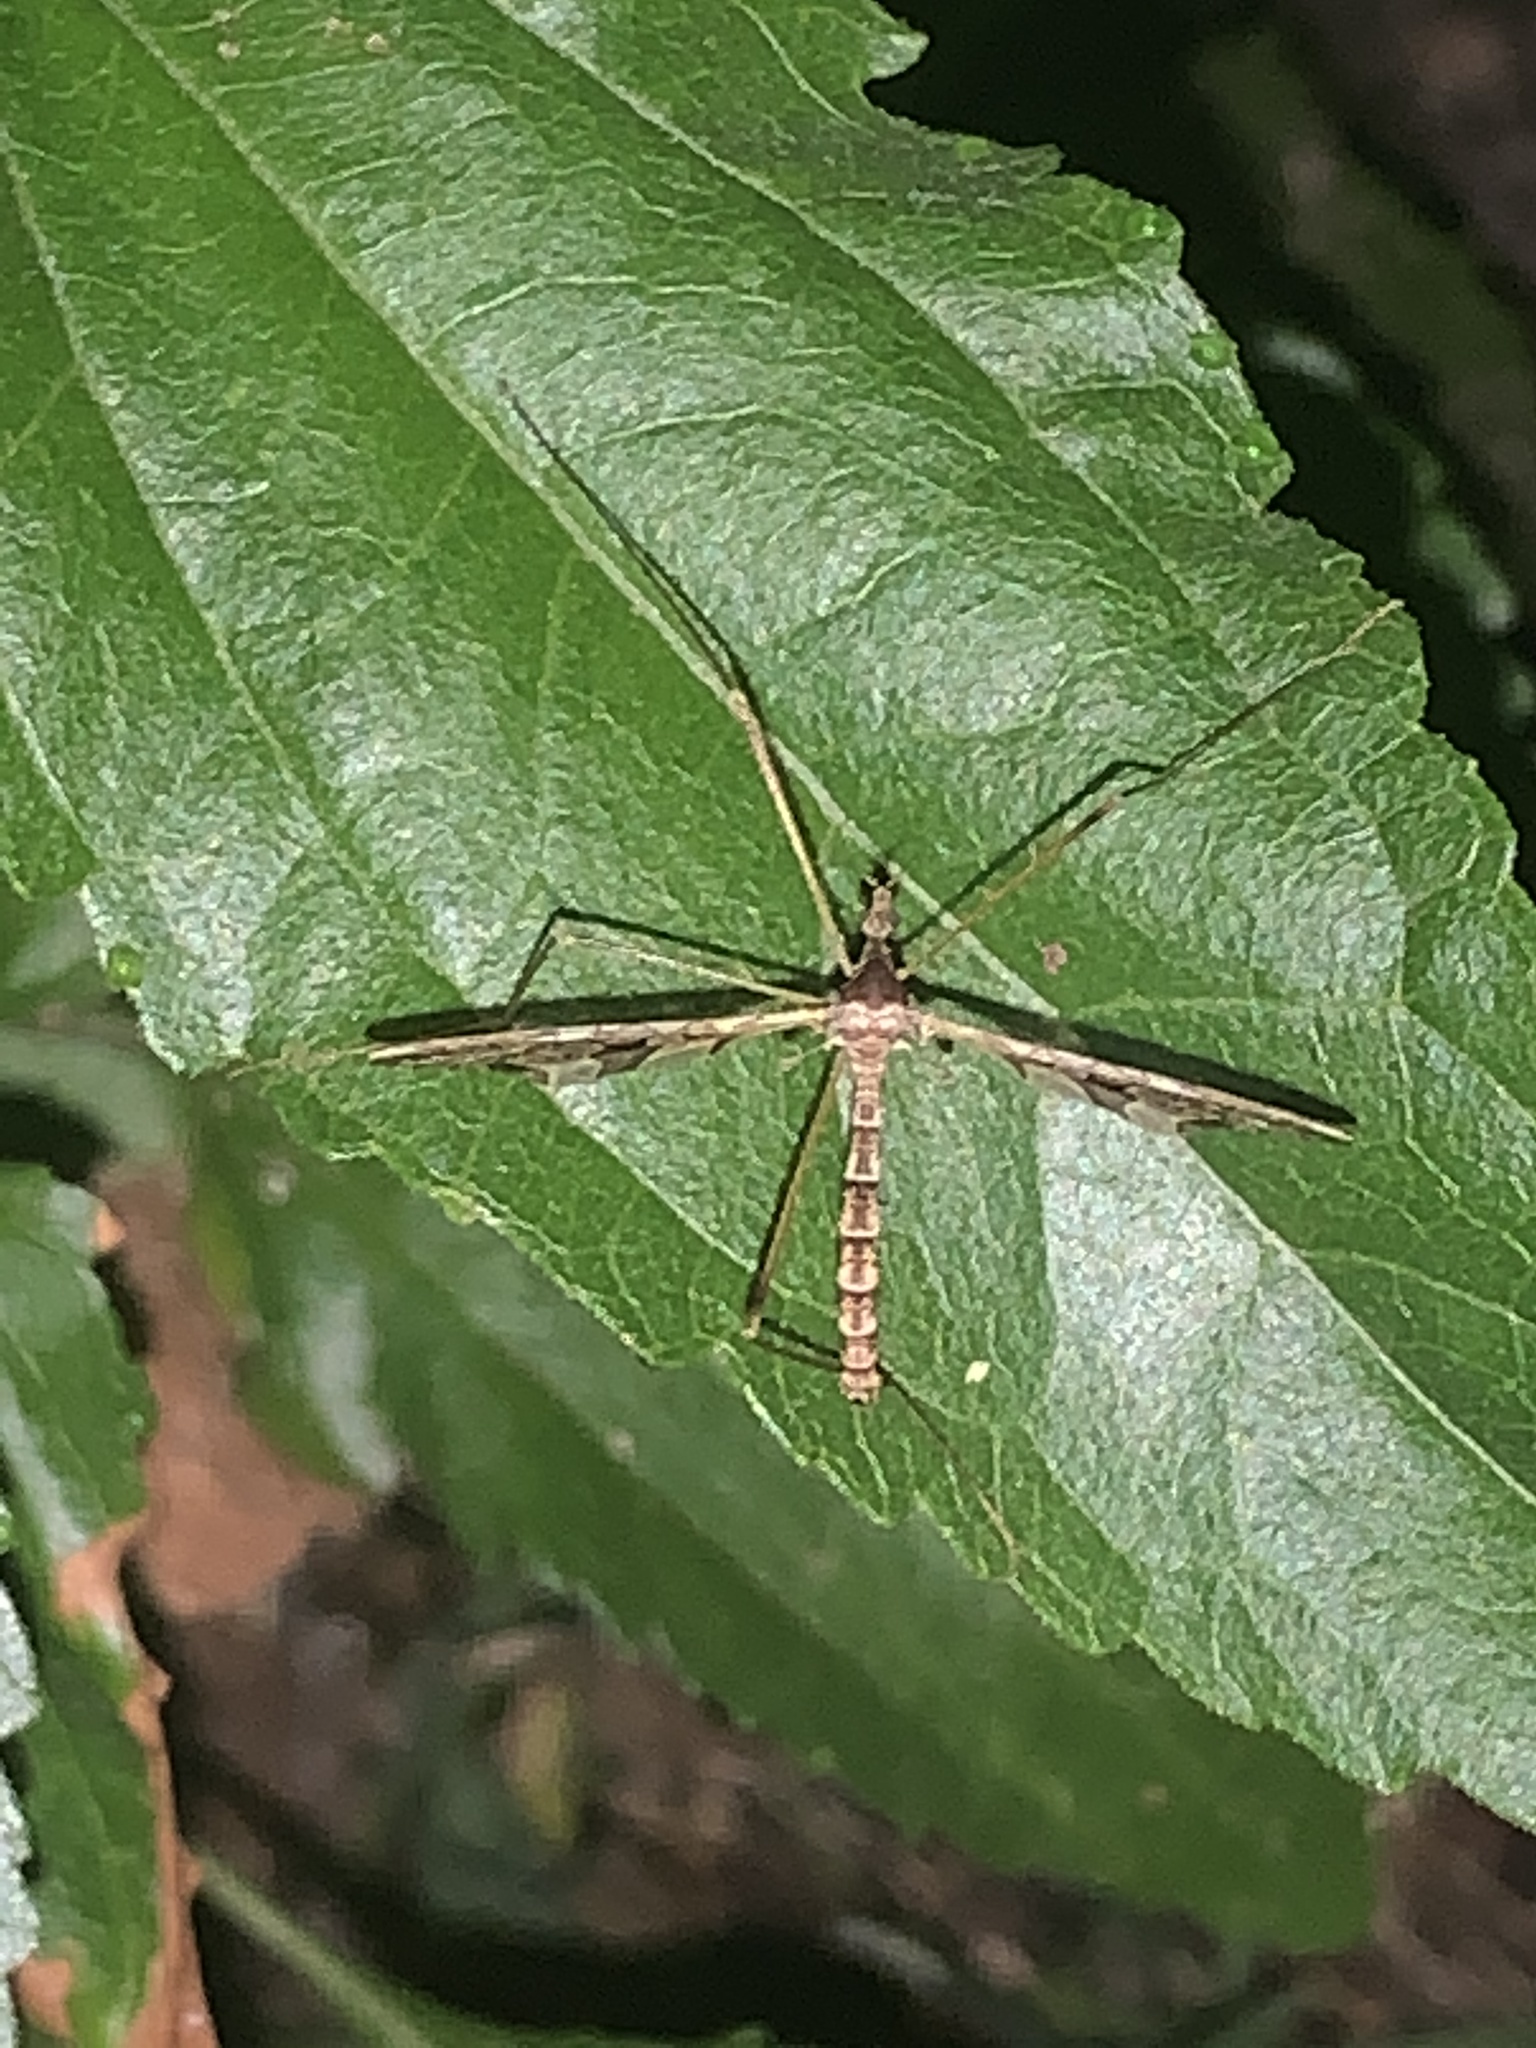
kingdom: Animalia
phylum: Arthropoda
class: Insecta
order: Diptera
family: Limoniidae
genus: Epiphragma
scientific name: Epiphragma solatrix
